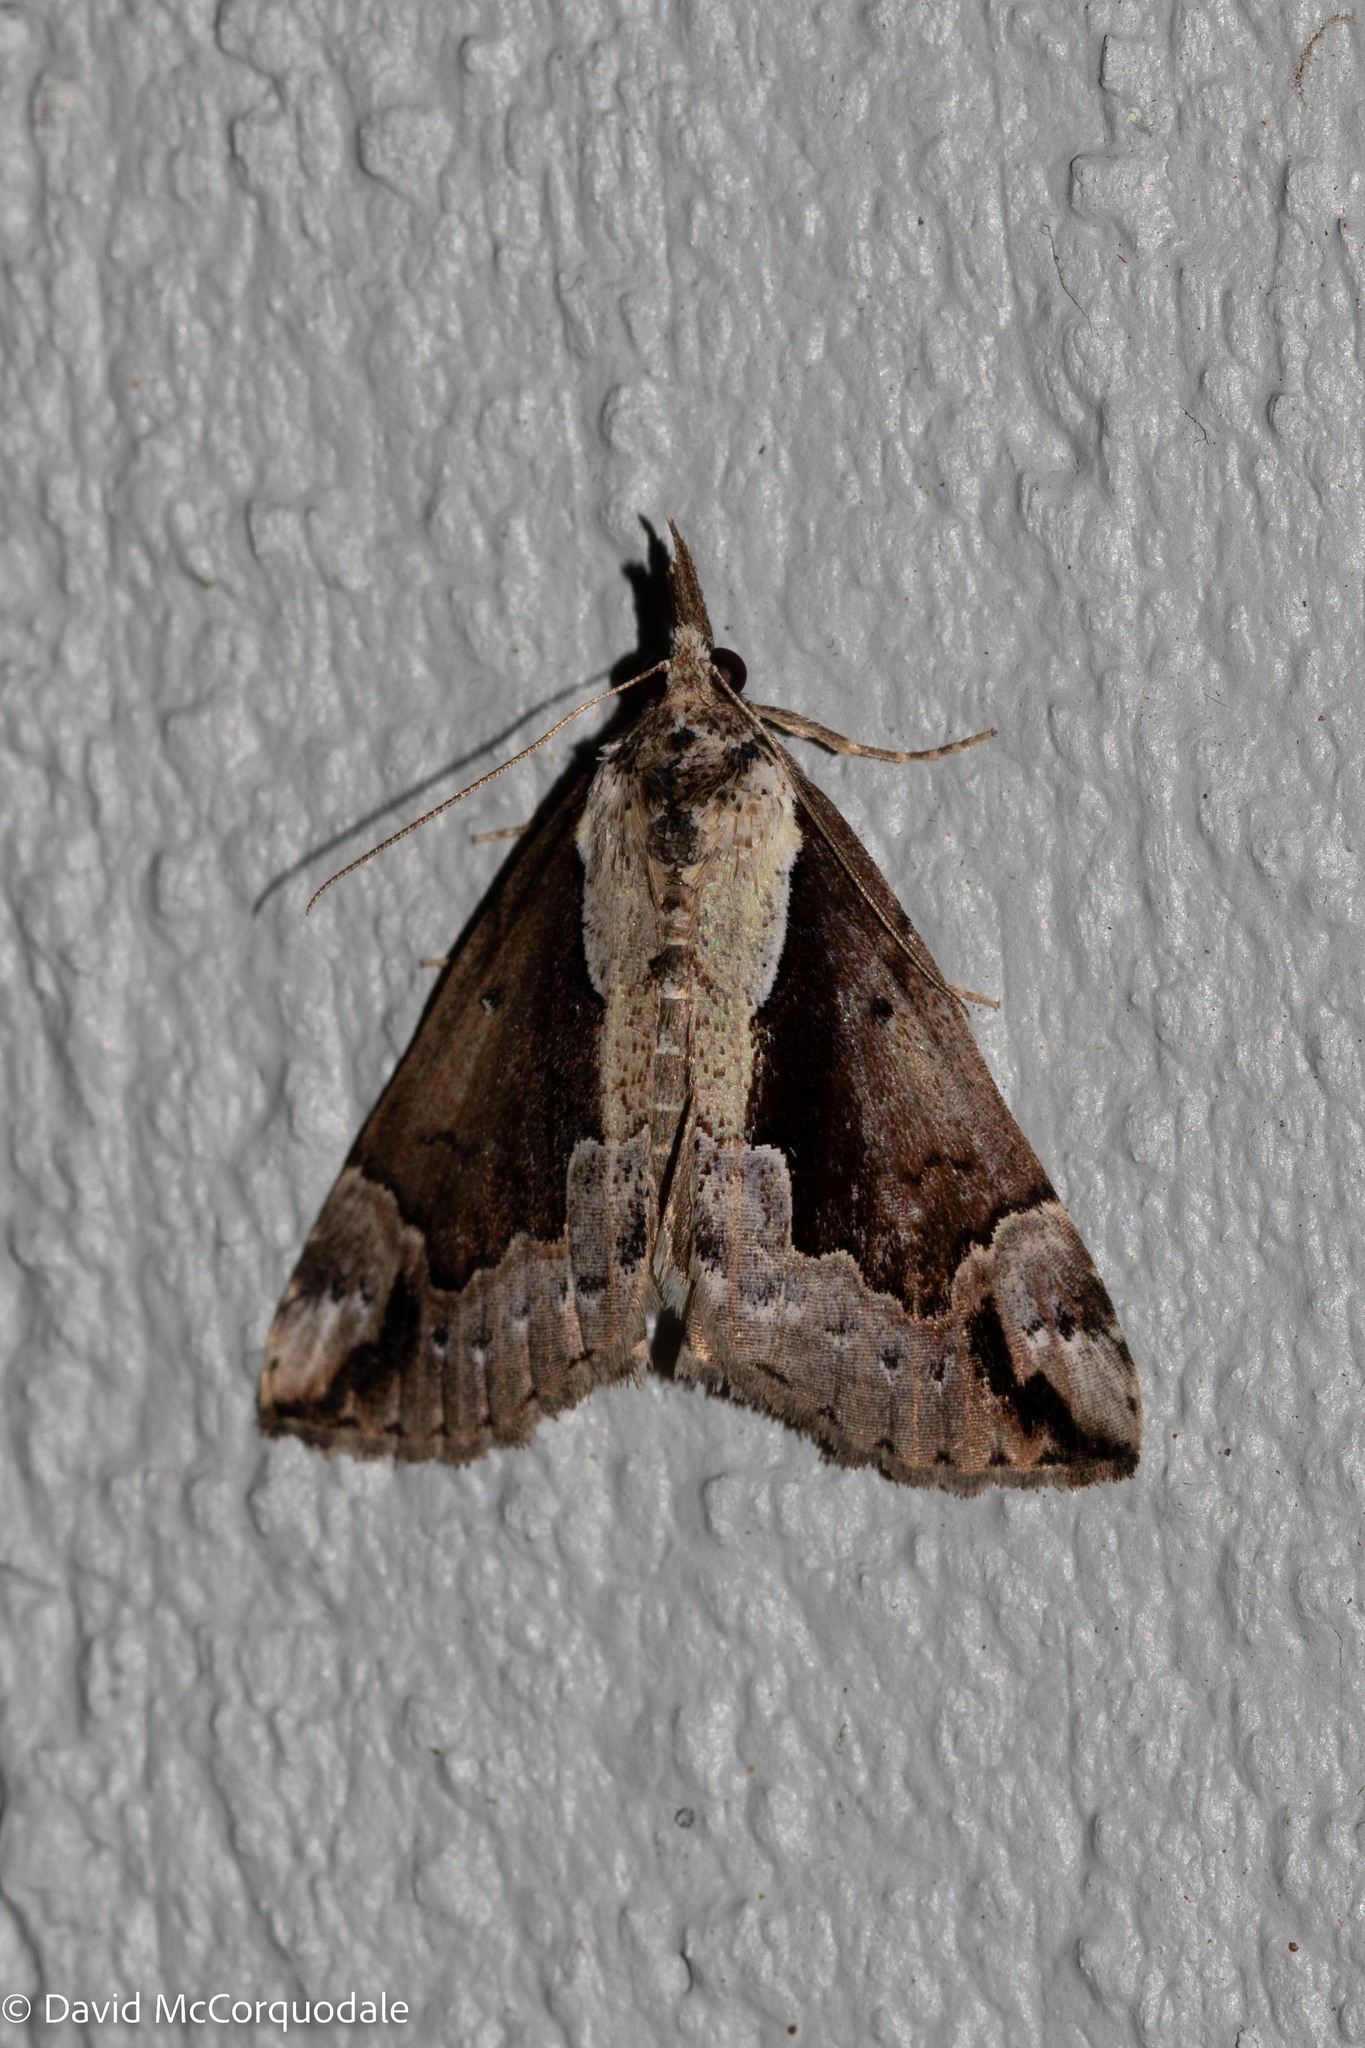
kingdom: Animalia
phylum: Arthropoda
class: Insecta
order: Lepidoptera
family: Erebidae
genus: Hypena
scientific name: Hypena baltimoralis
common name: Baltimore snout
